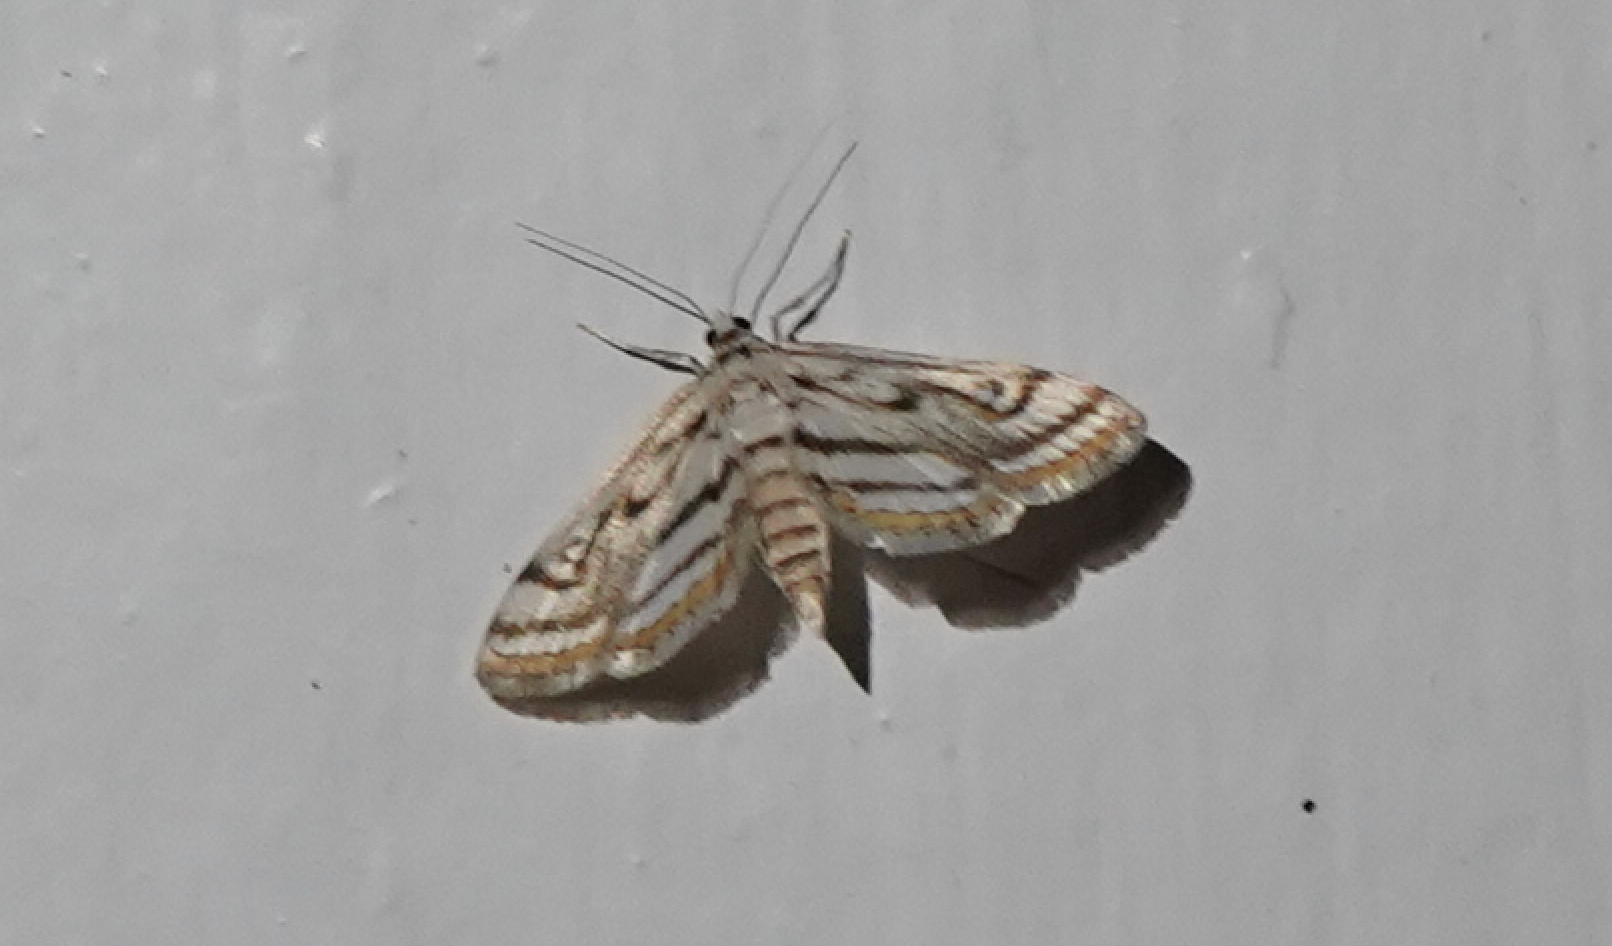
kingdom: Animalia
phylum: Arthropoda
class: Insecta
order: Lepidoptera
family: Crambidae
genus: Parapoynx
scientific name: Parapoynx badiusalis
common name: Chestnut-marked pondweed moth
